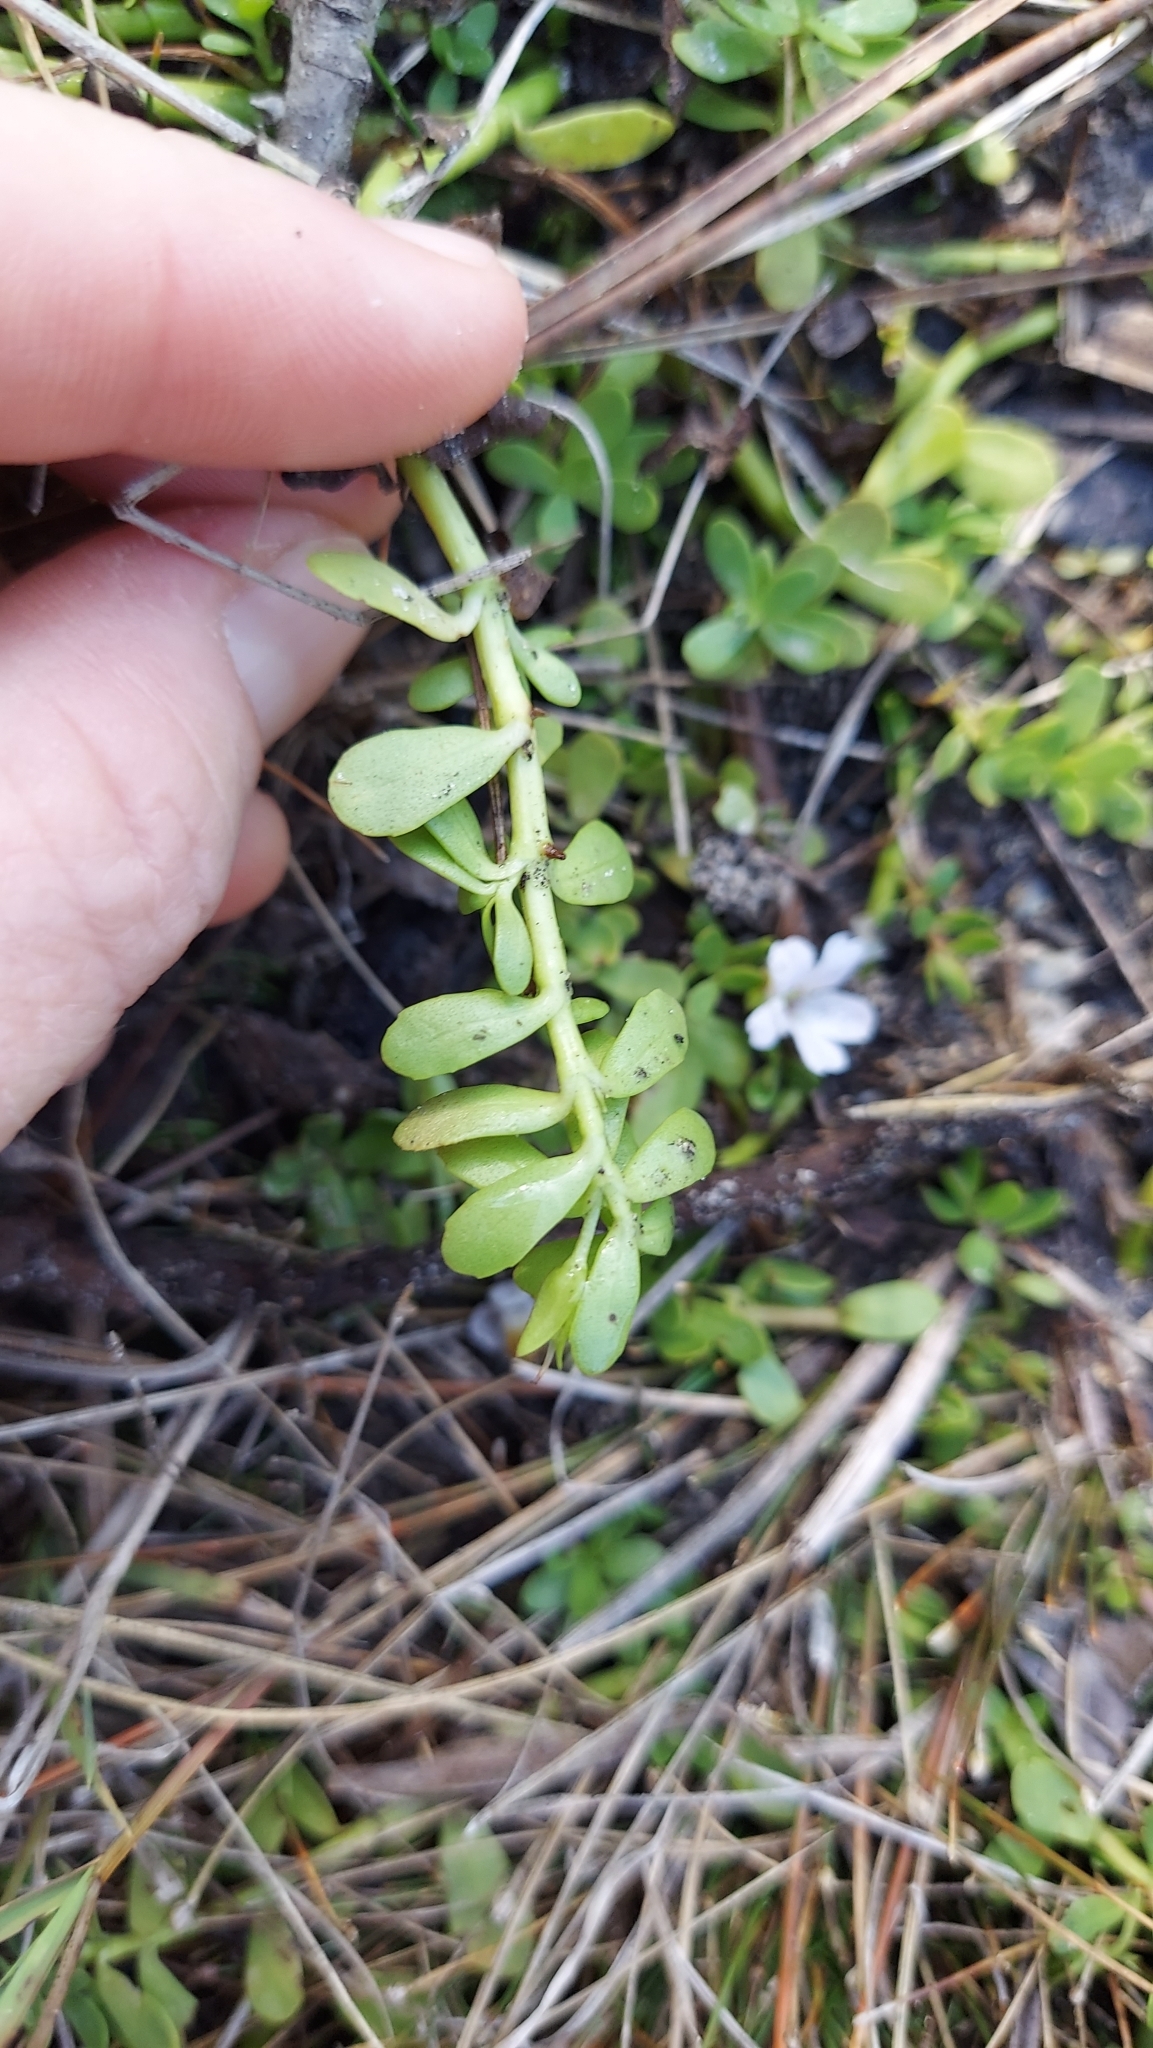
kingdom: Plantae
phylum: Tracheophyta
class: Magnoliopsida
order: Lamiales
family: Plantaginaceae
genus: Bacopa
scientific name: Bacopa monnieri
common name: Indian-pennywort
